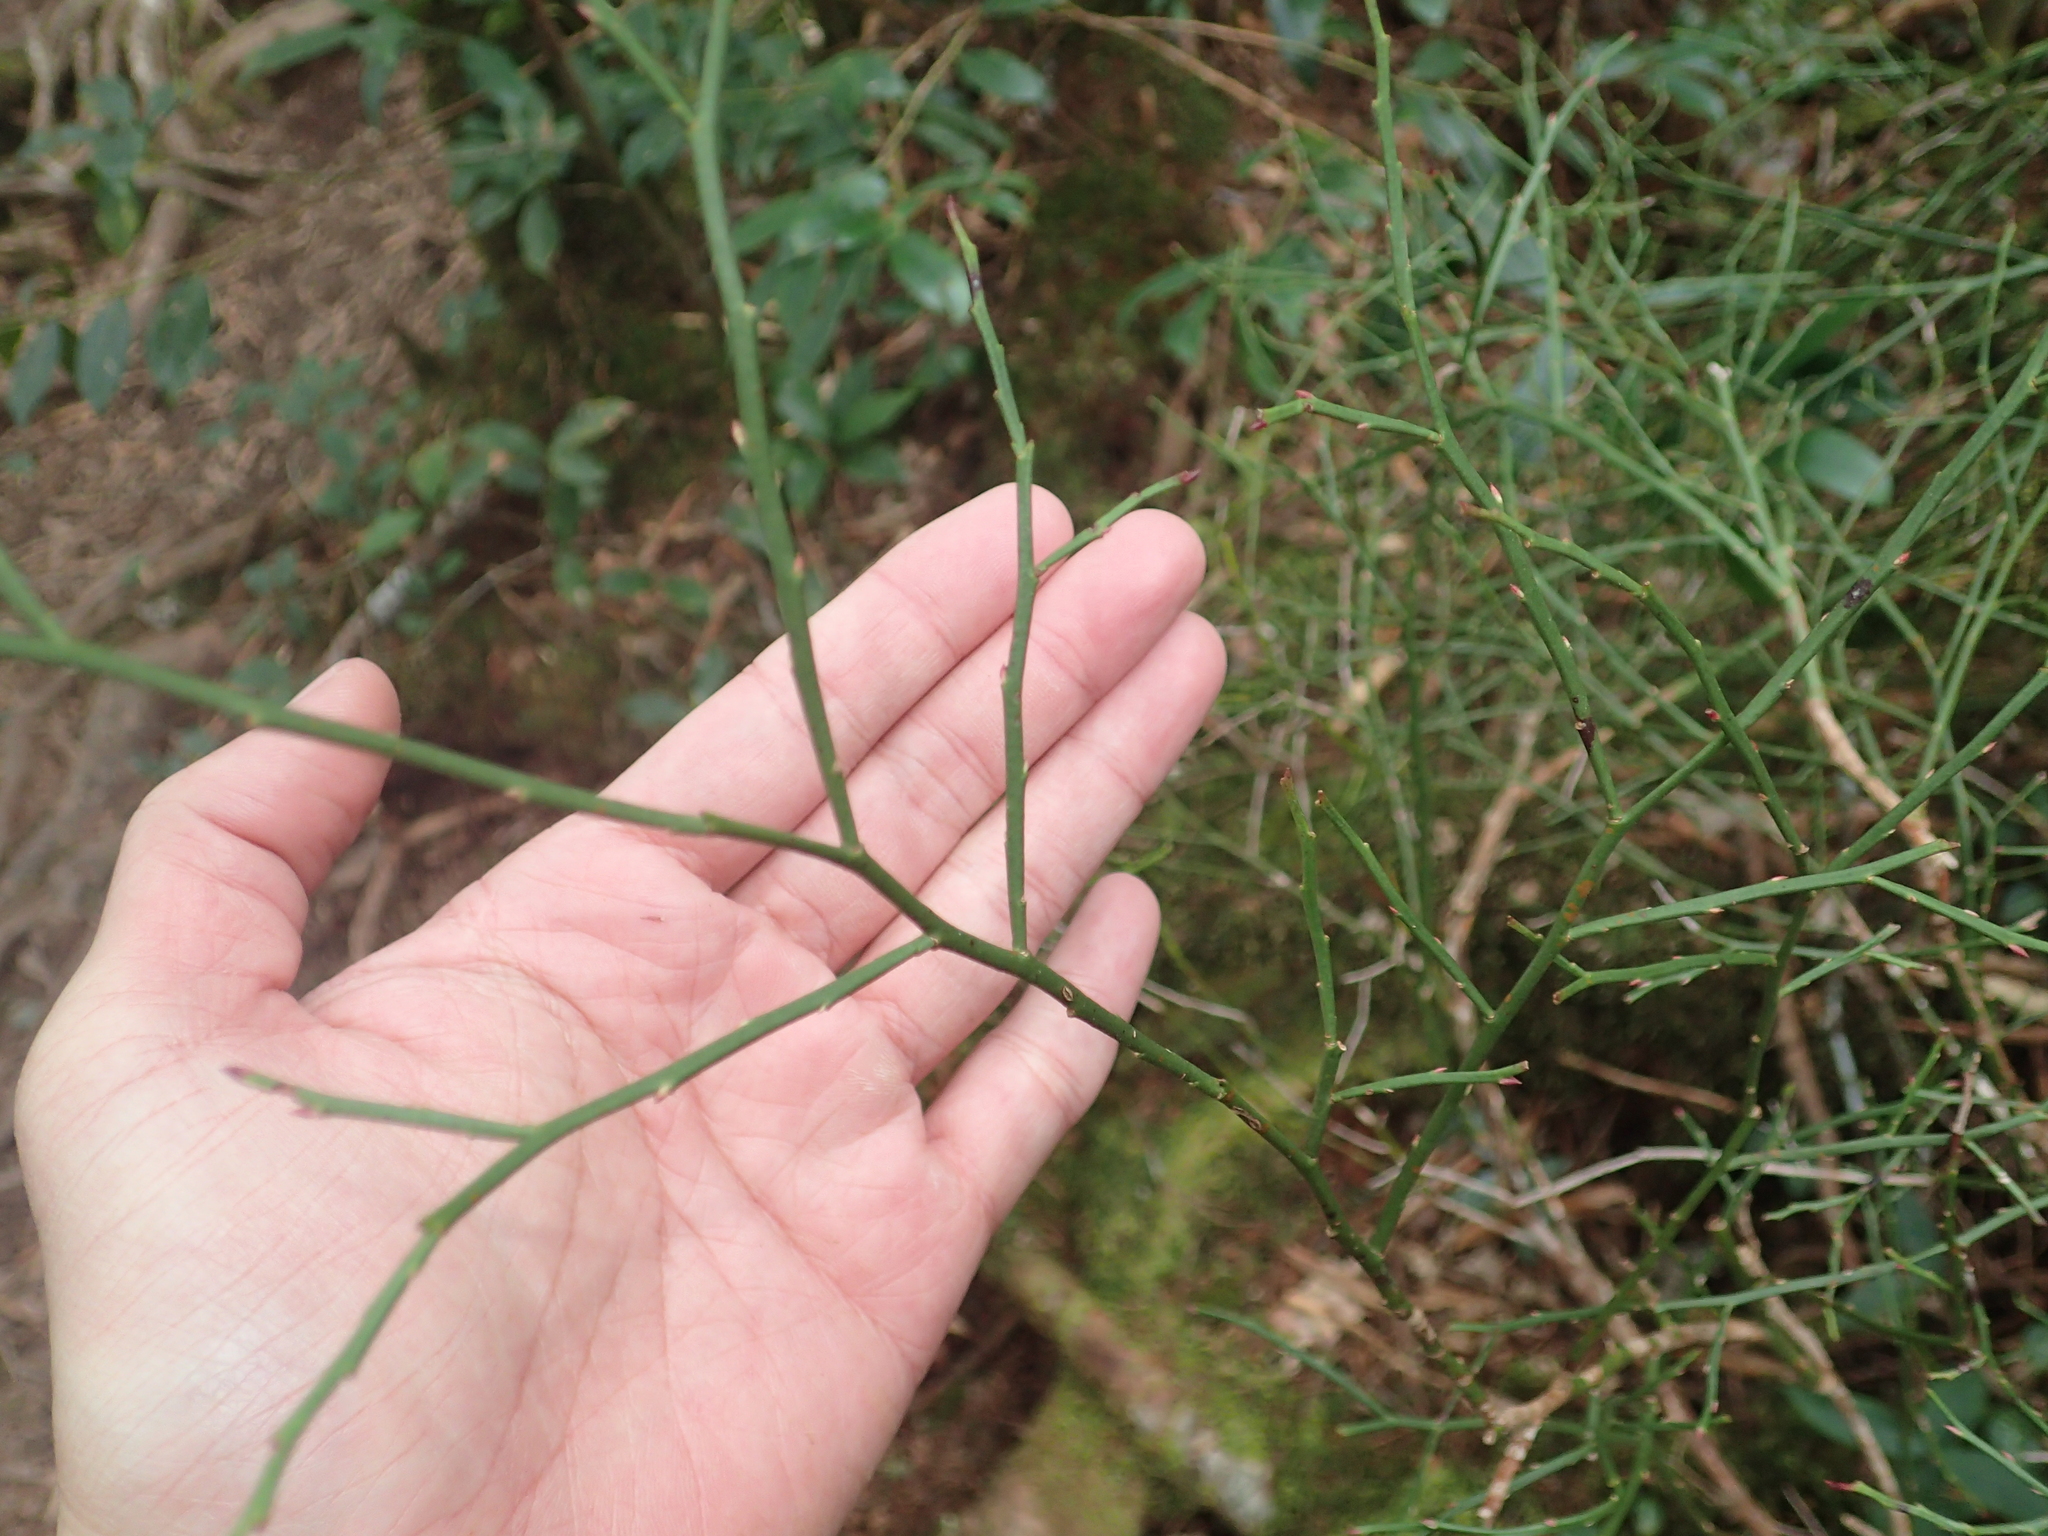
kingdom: Plantae
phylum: Tracheophyta
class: Magnoliopsida
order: Ericales
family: Ericaceae
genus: Vaccinium
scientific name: Vaccinium japonicum
